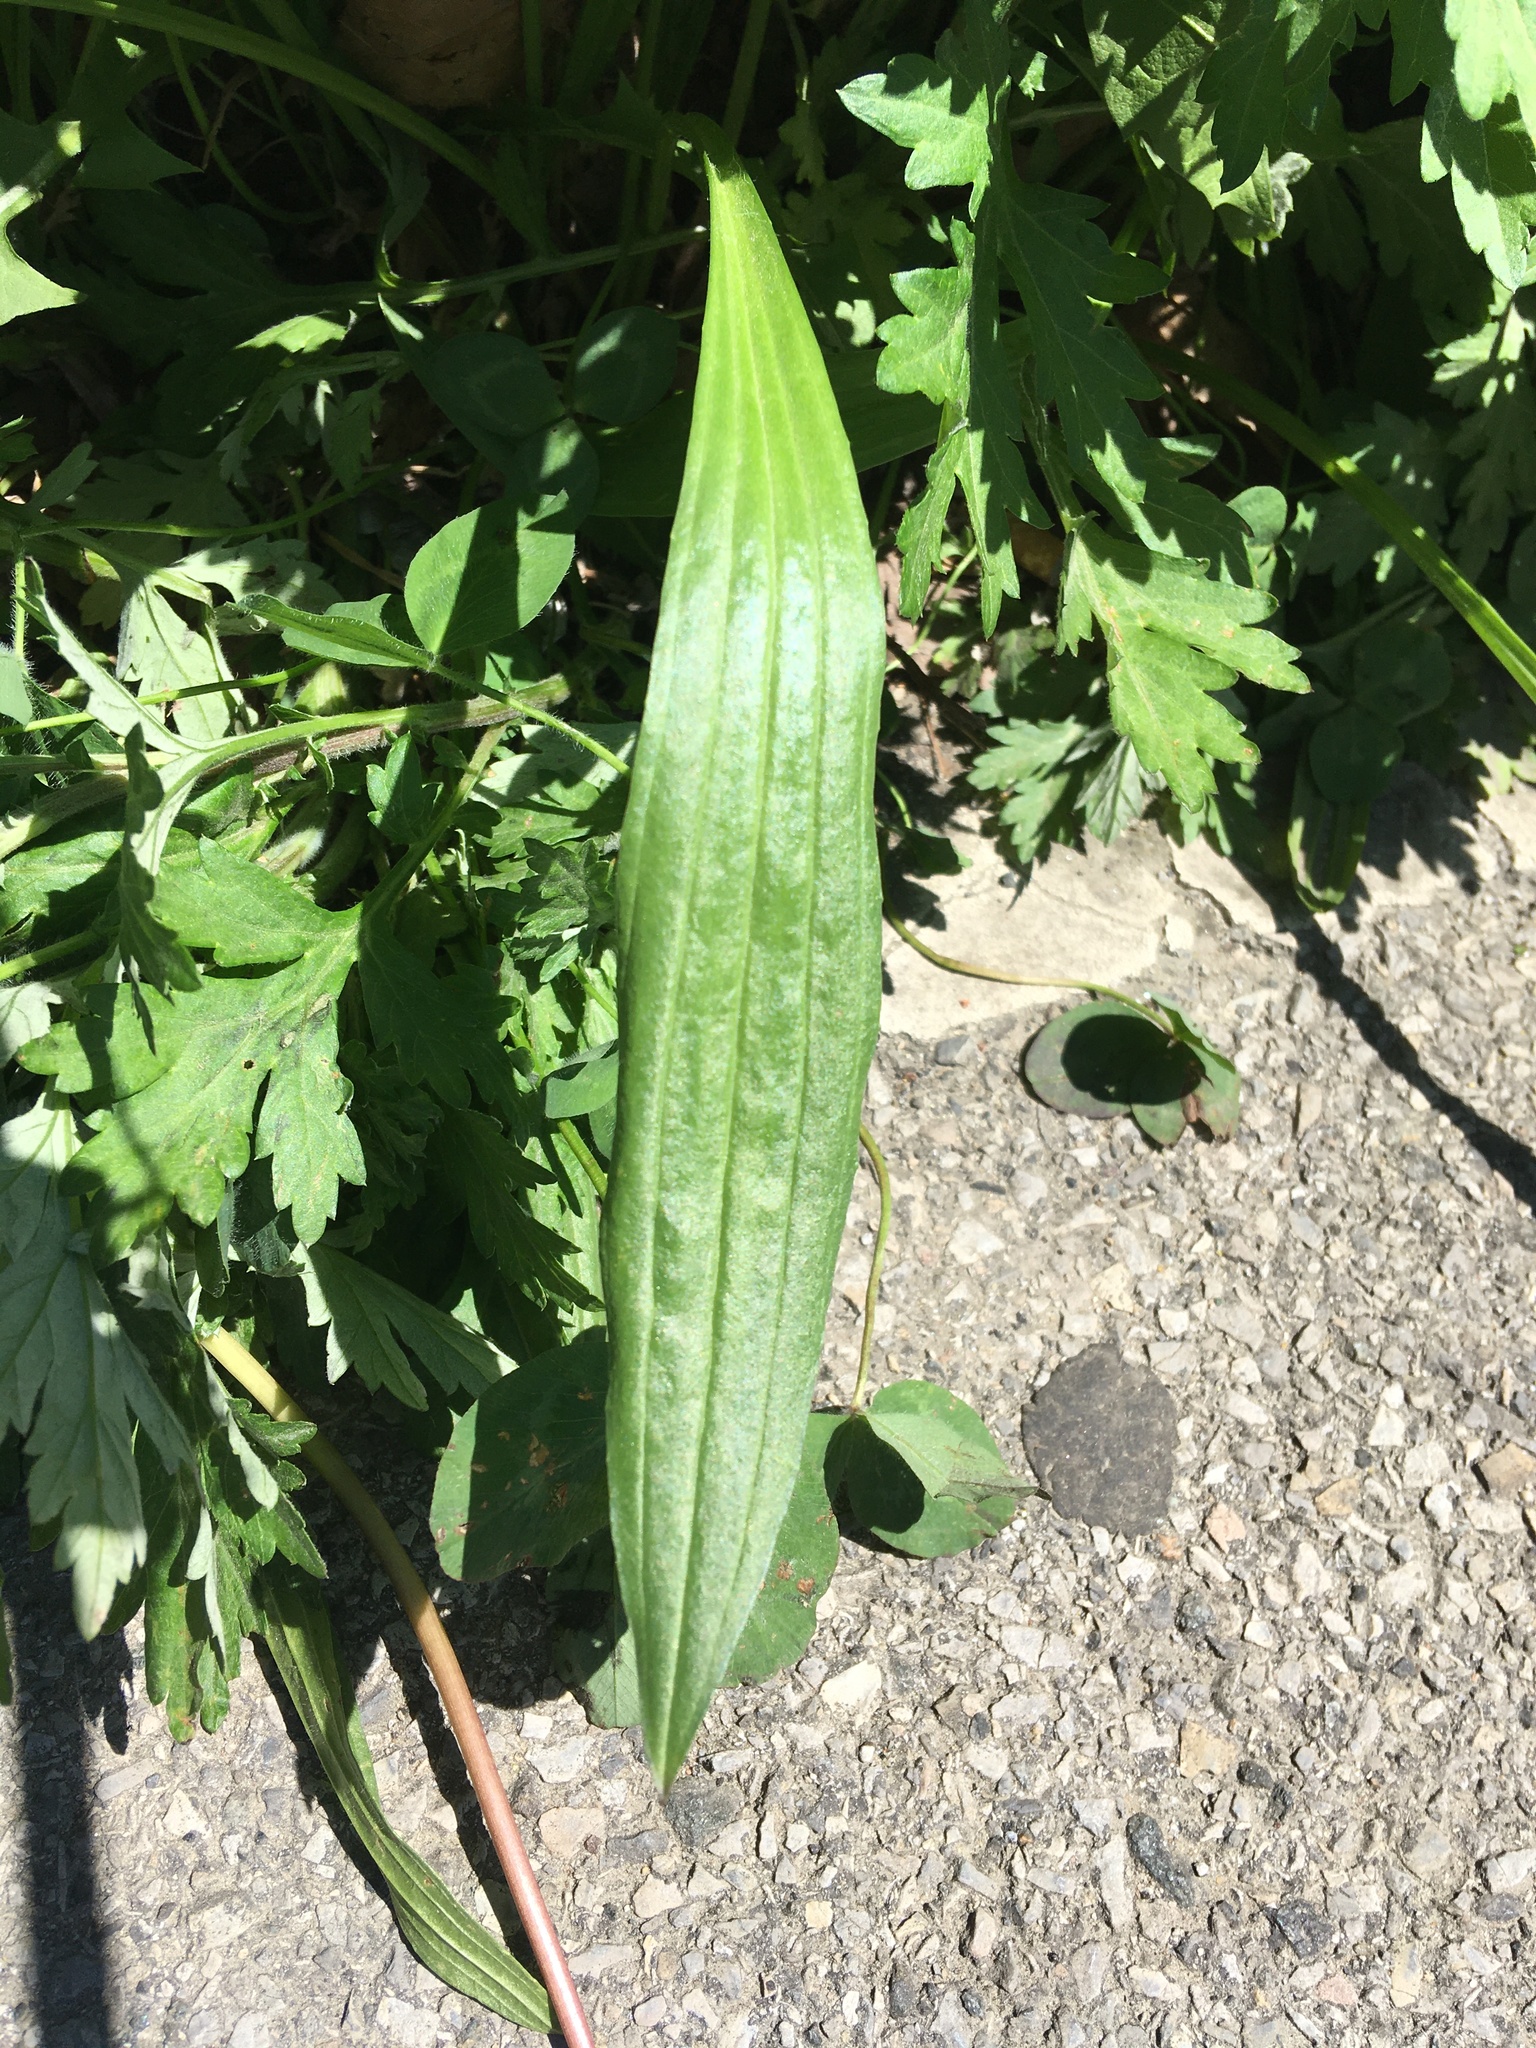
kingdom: Plantae
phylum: Tracheophyta
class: Magnoliopsida
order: Lamiales
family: Plantaginaceae
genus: Plantago
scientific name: Plantago lanceolata
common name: Ribwort plantain
